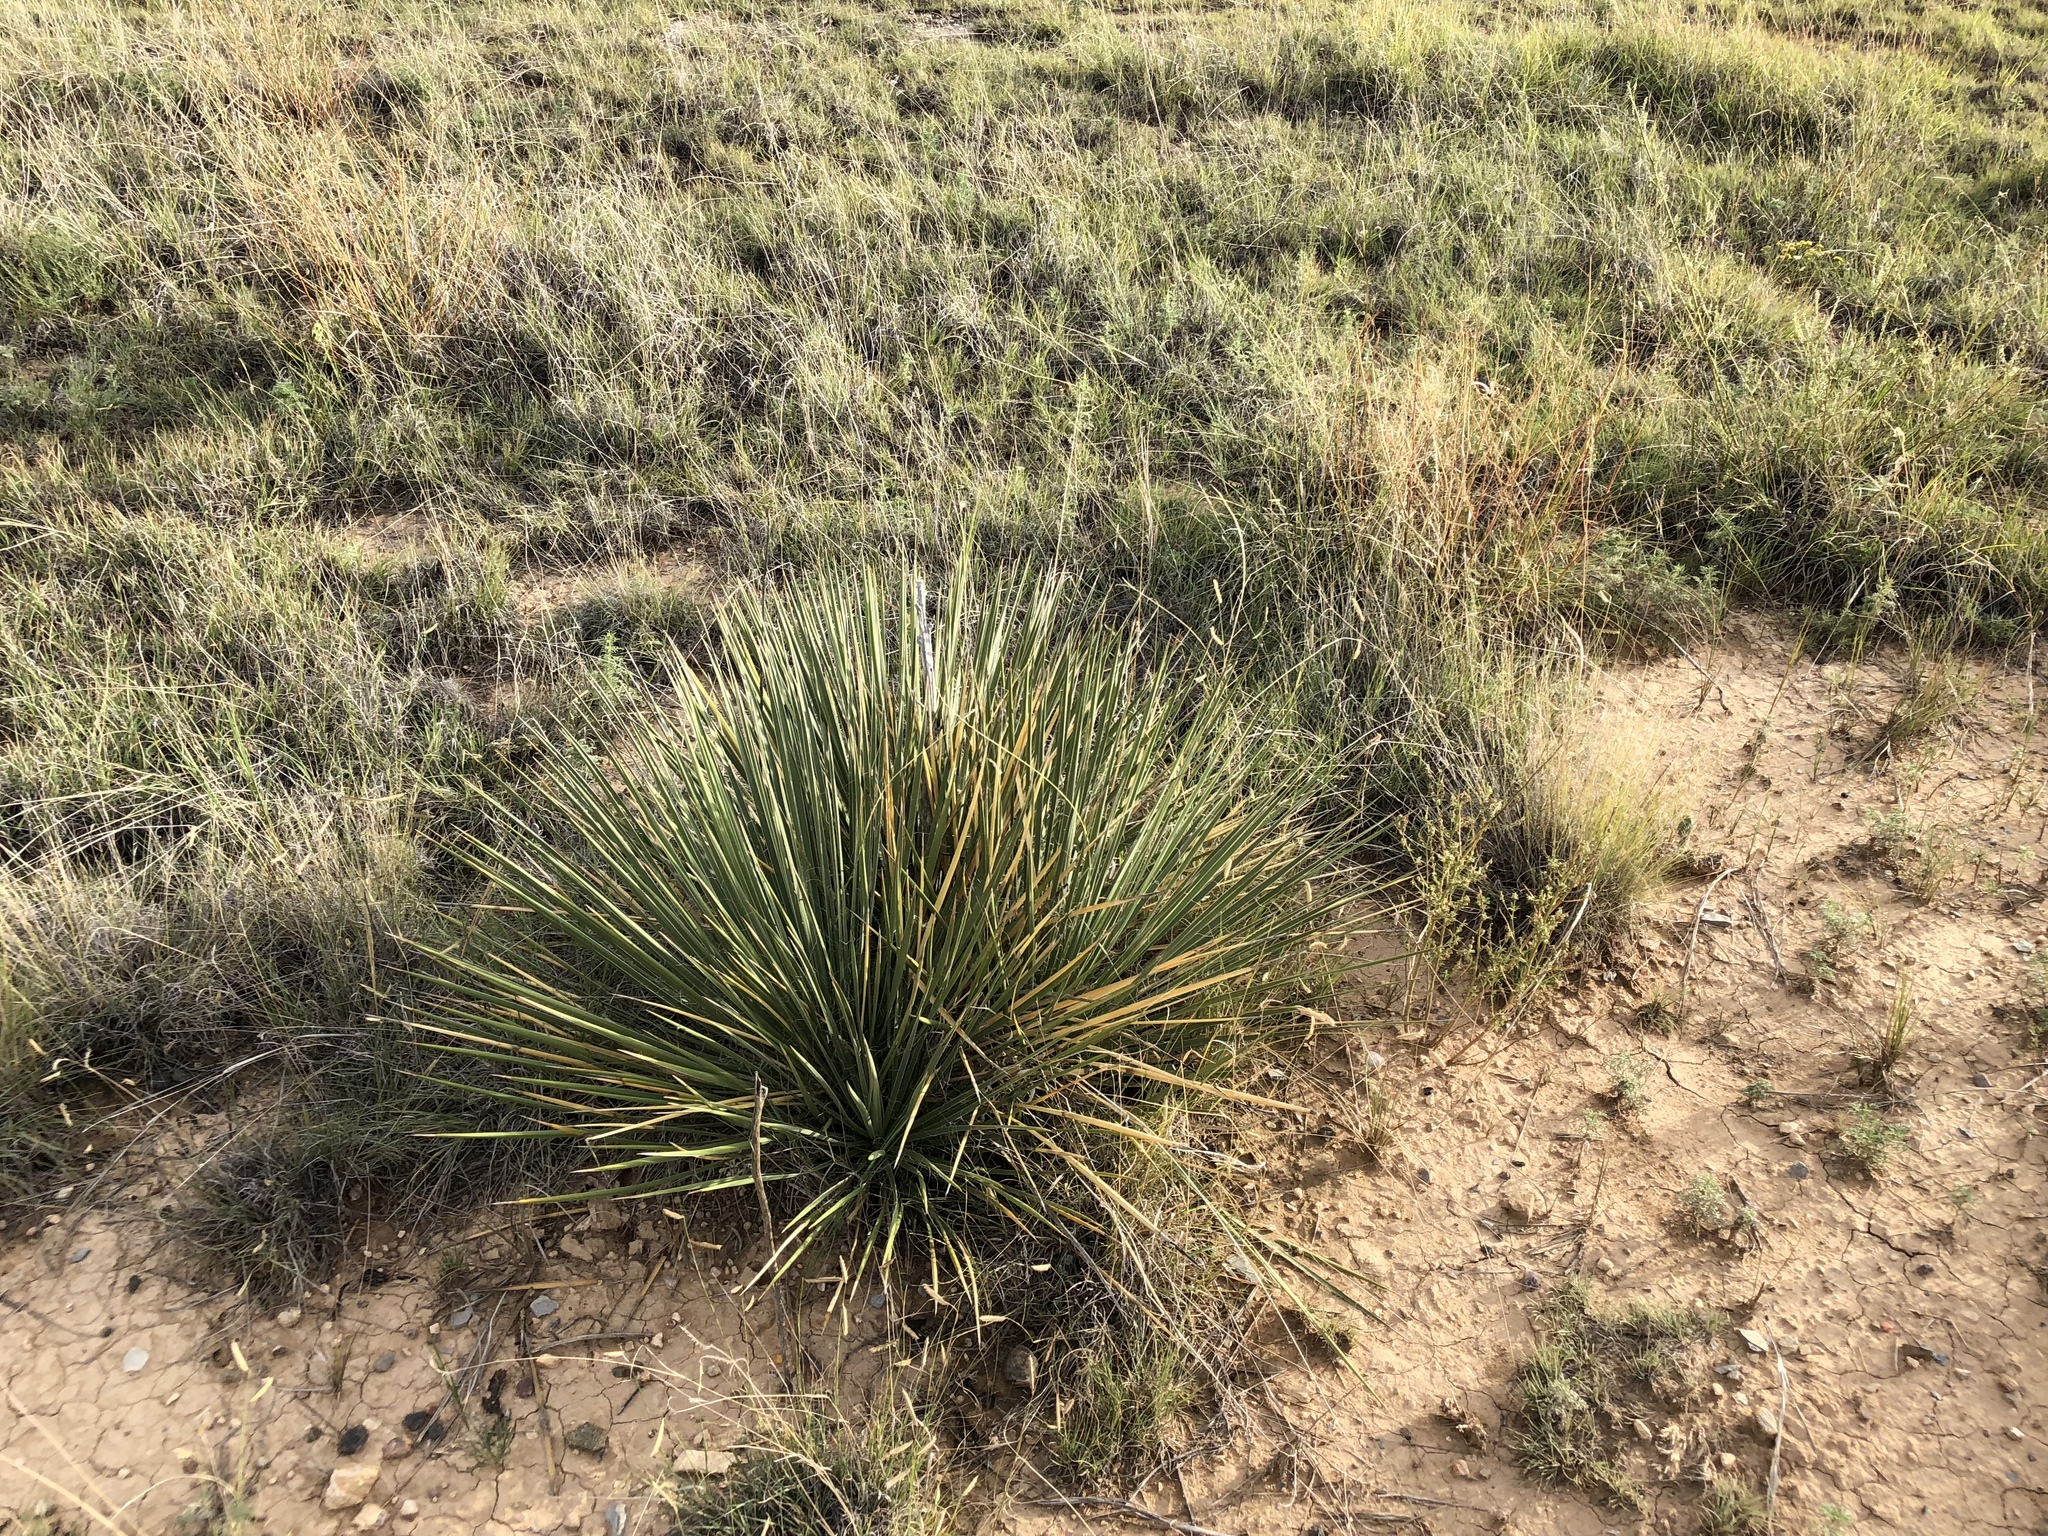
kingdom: Plantae
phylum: Tracheophyta
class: Liliopsida
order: Asparagales
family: Asparagaceae
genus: Yucca
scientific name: Yucca glauca
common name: Great plains yucca
